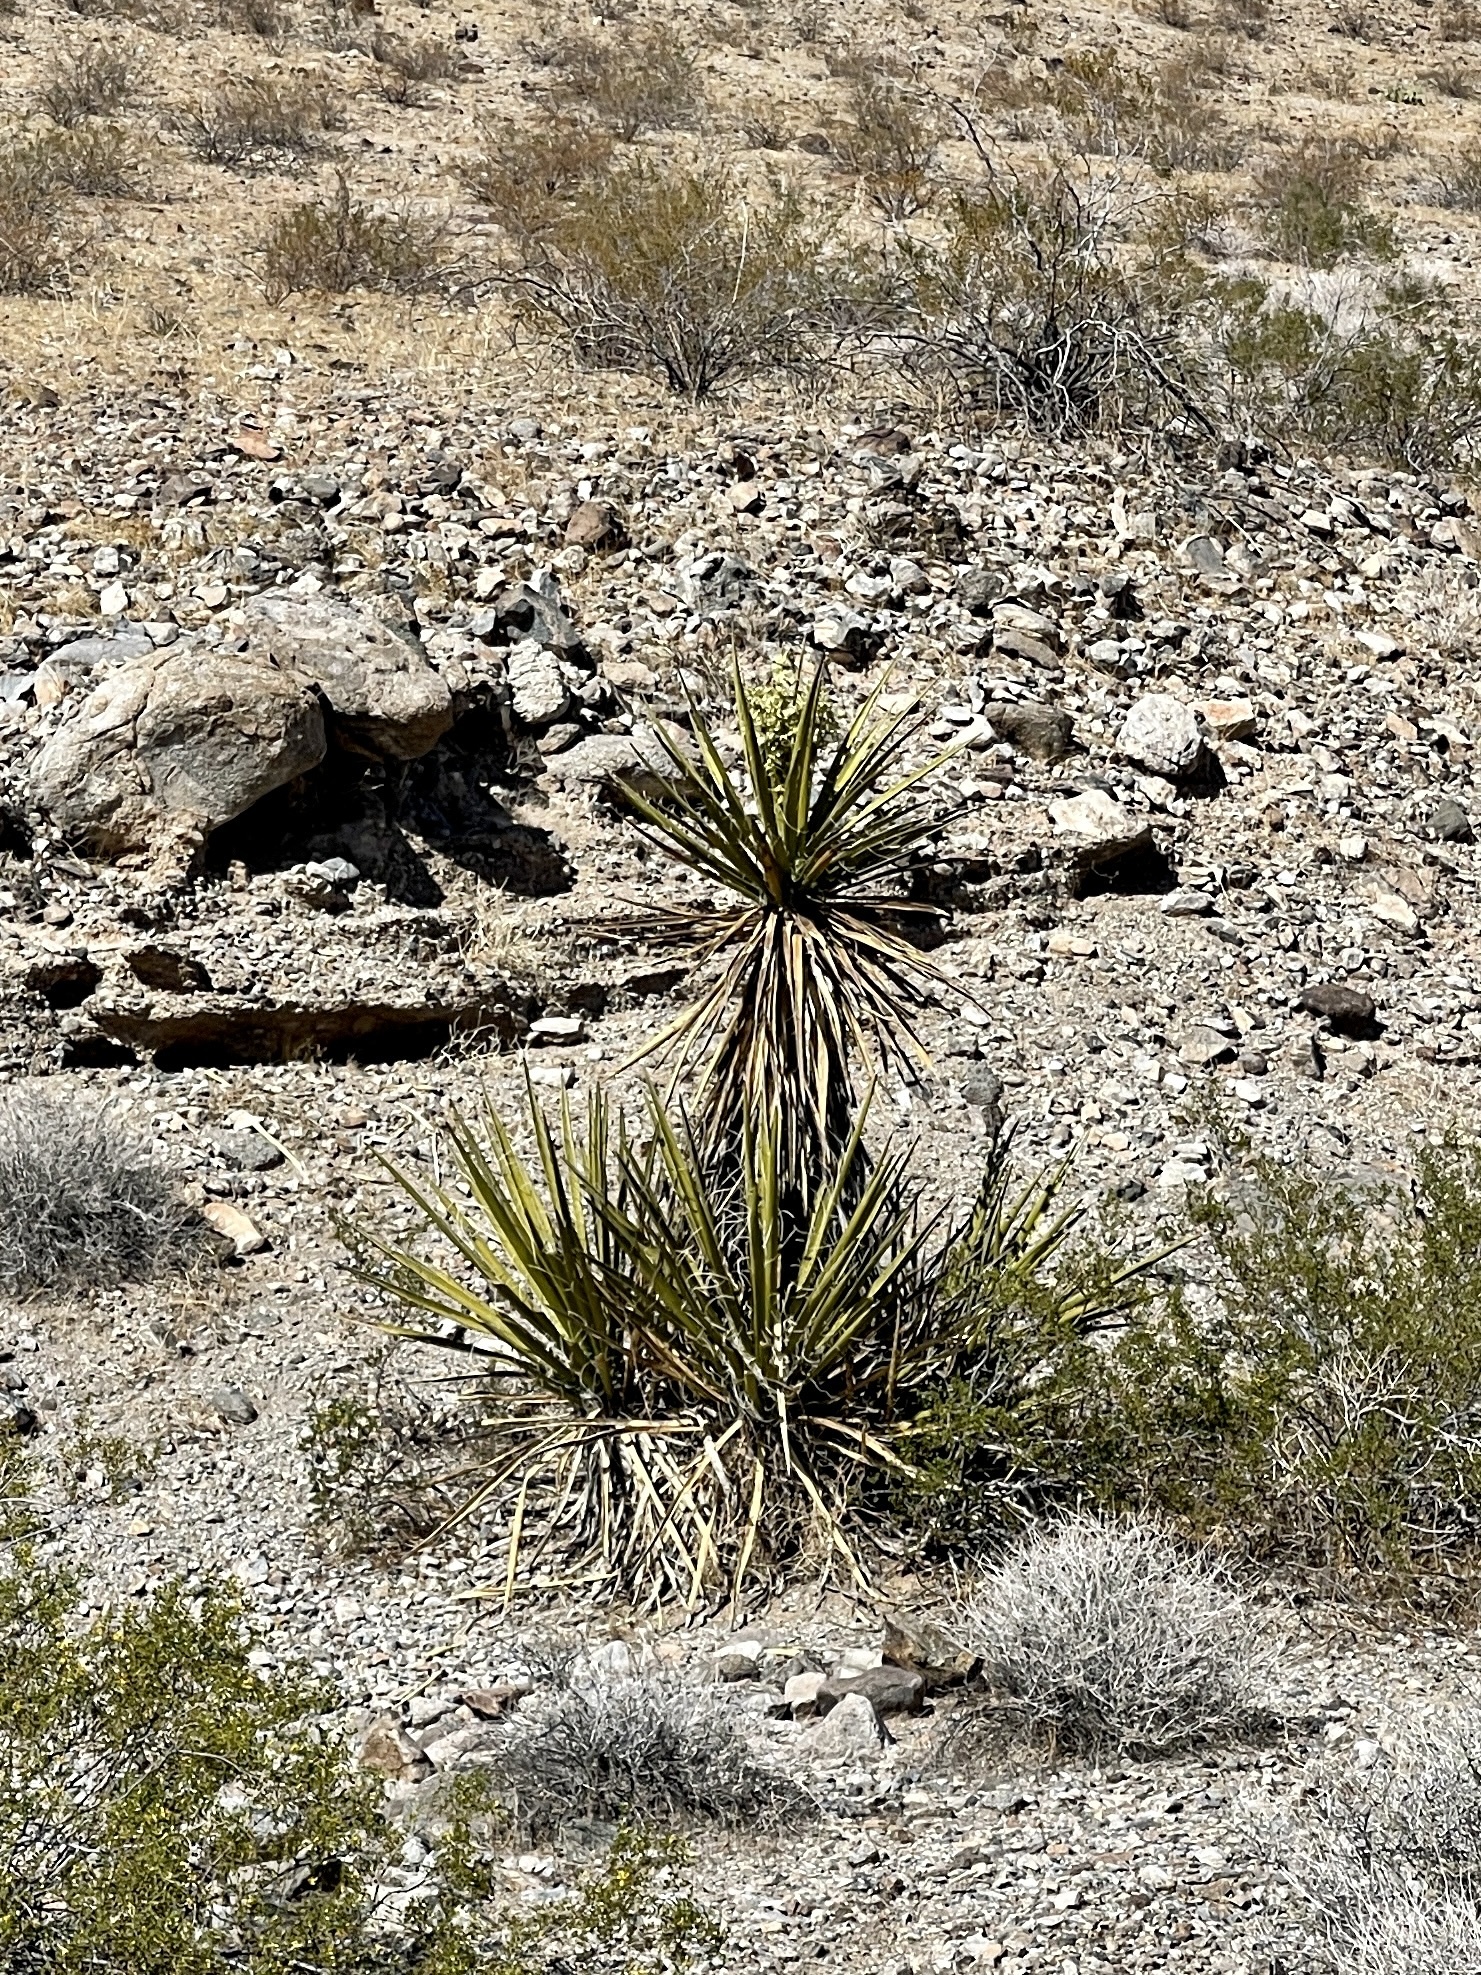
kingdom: Plantae
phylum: Tracheophyta
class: Liliopsida
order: Asparagales
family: Asparagaceae
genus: Yucca
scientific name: Yucca schidigera
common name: Mojave yucca
